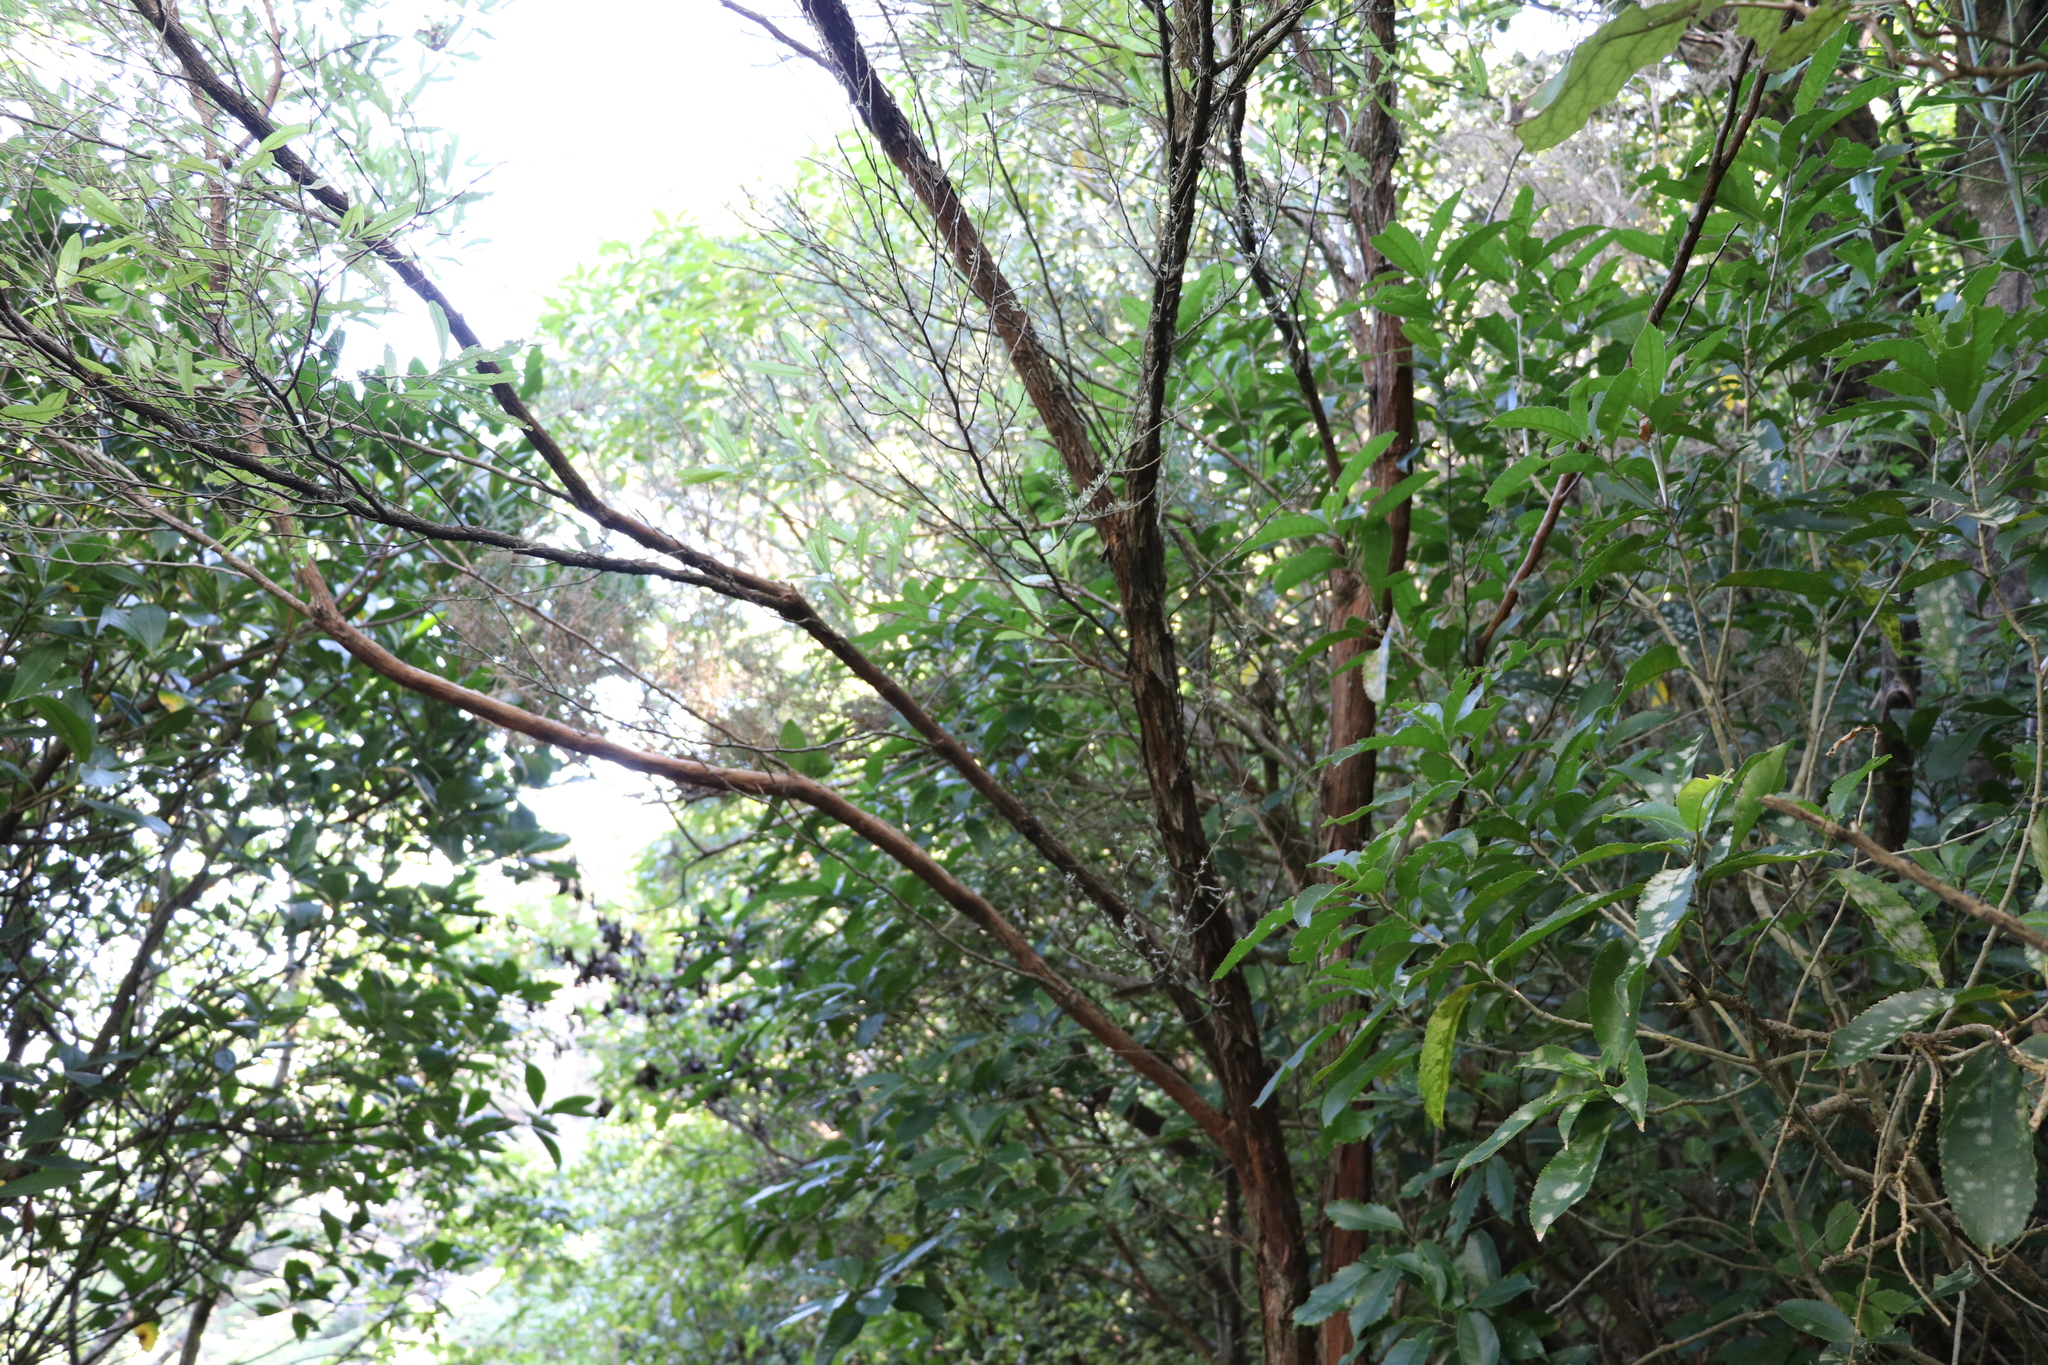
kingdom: Plantae
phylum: Tracheophyta
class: Magnoliopsida
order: Sapindales
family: Sapindaceae
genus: Dodonaea
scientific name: Dodonaea viscosa
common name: Hopbush
